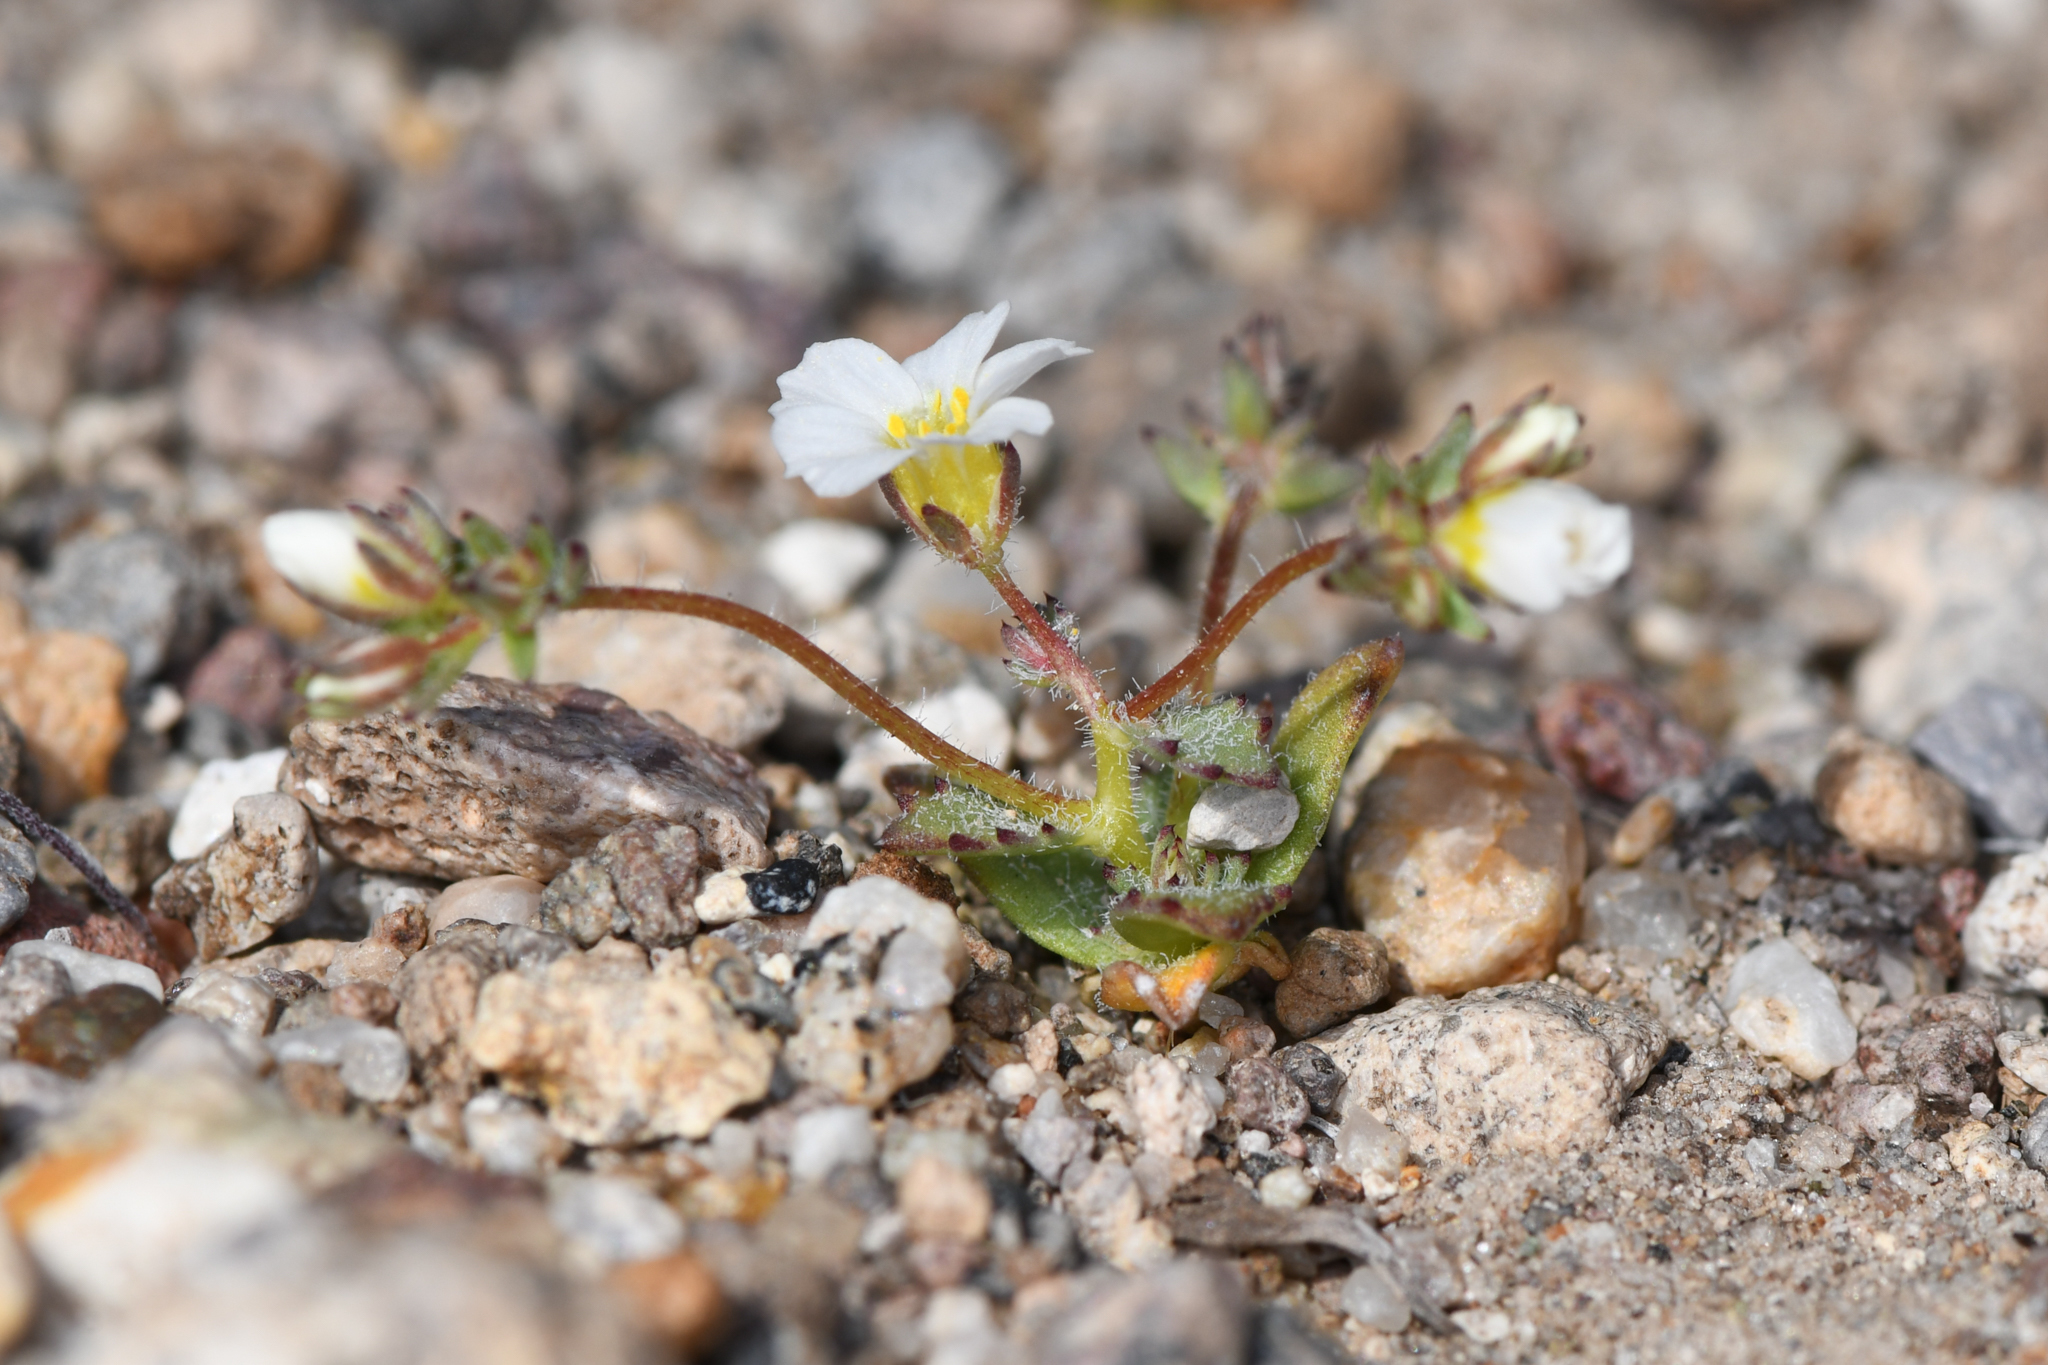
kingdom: Plantae
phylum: Tracheophyta
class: Magnoliopsida
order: Ericales
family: Polemoniaceae
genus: Linanthus
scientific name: Linanthus inyoensis
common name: Inyo gilia
